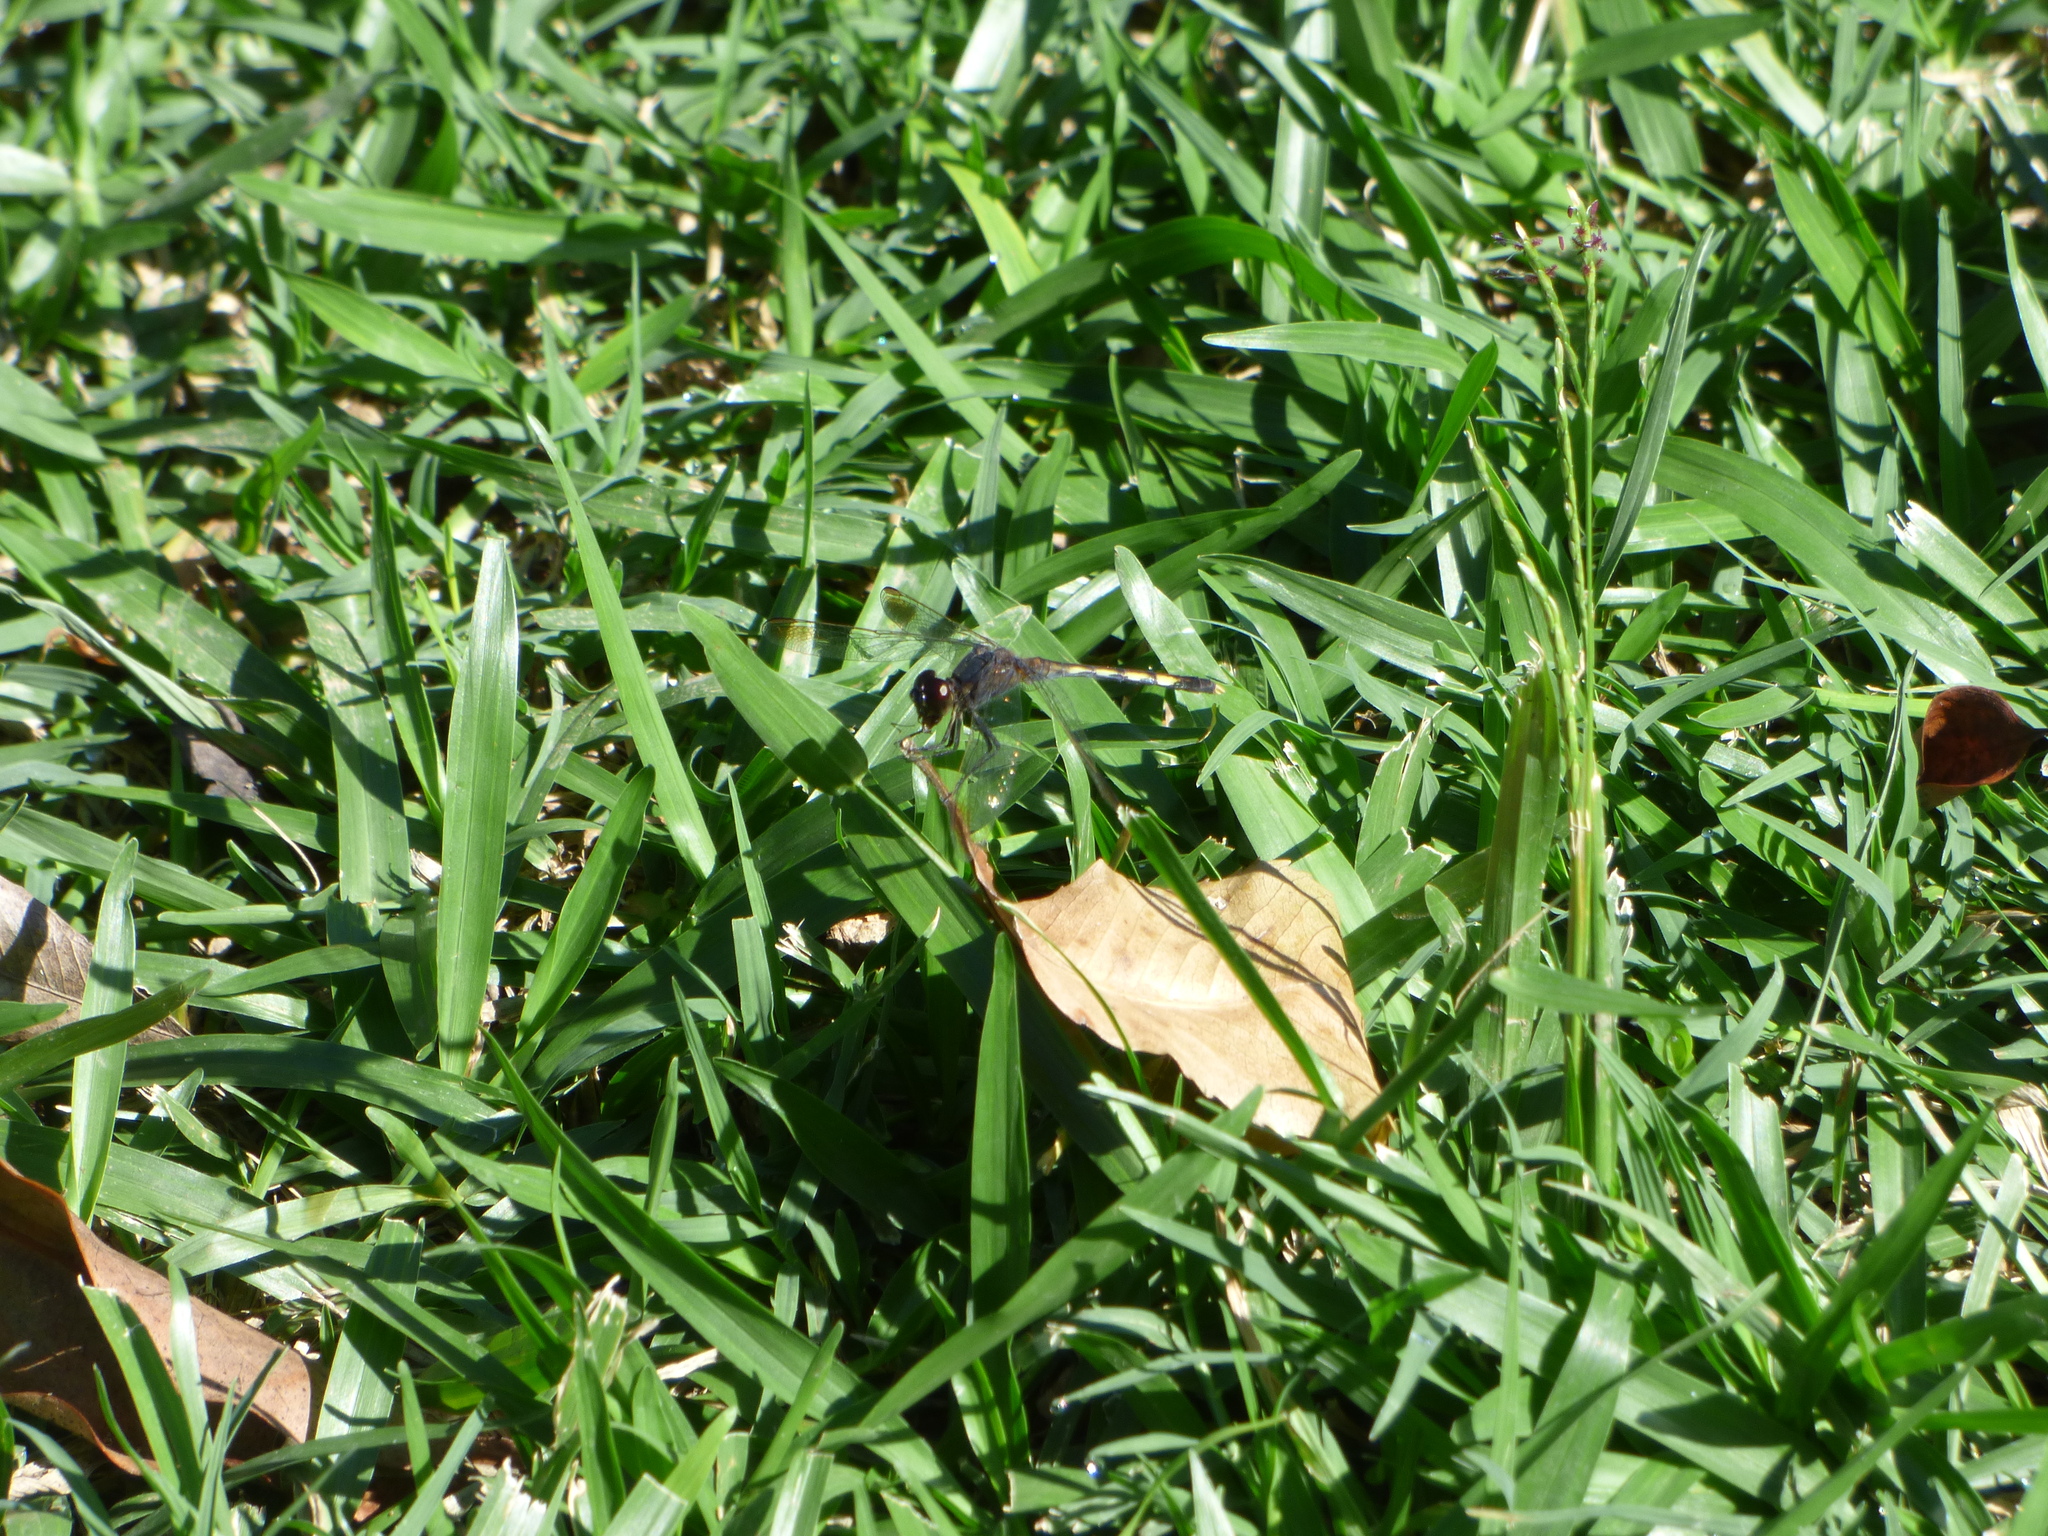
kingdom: Animalia
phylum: Arthropoda
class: Insecta
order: Odonata
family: Libellulidae
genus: Erythrodiplax
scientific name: Erythrodiplax nigricans
